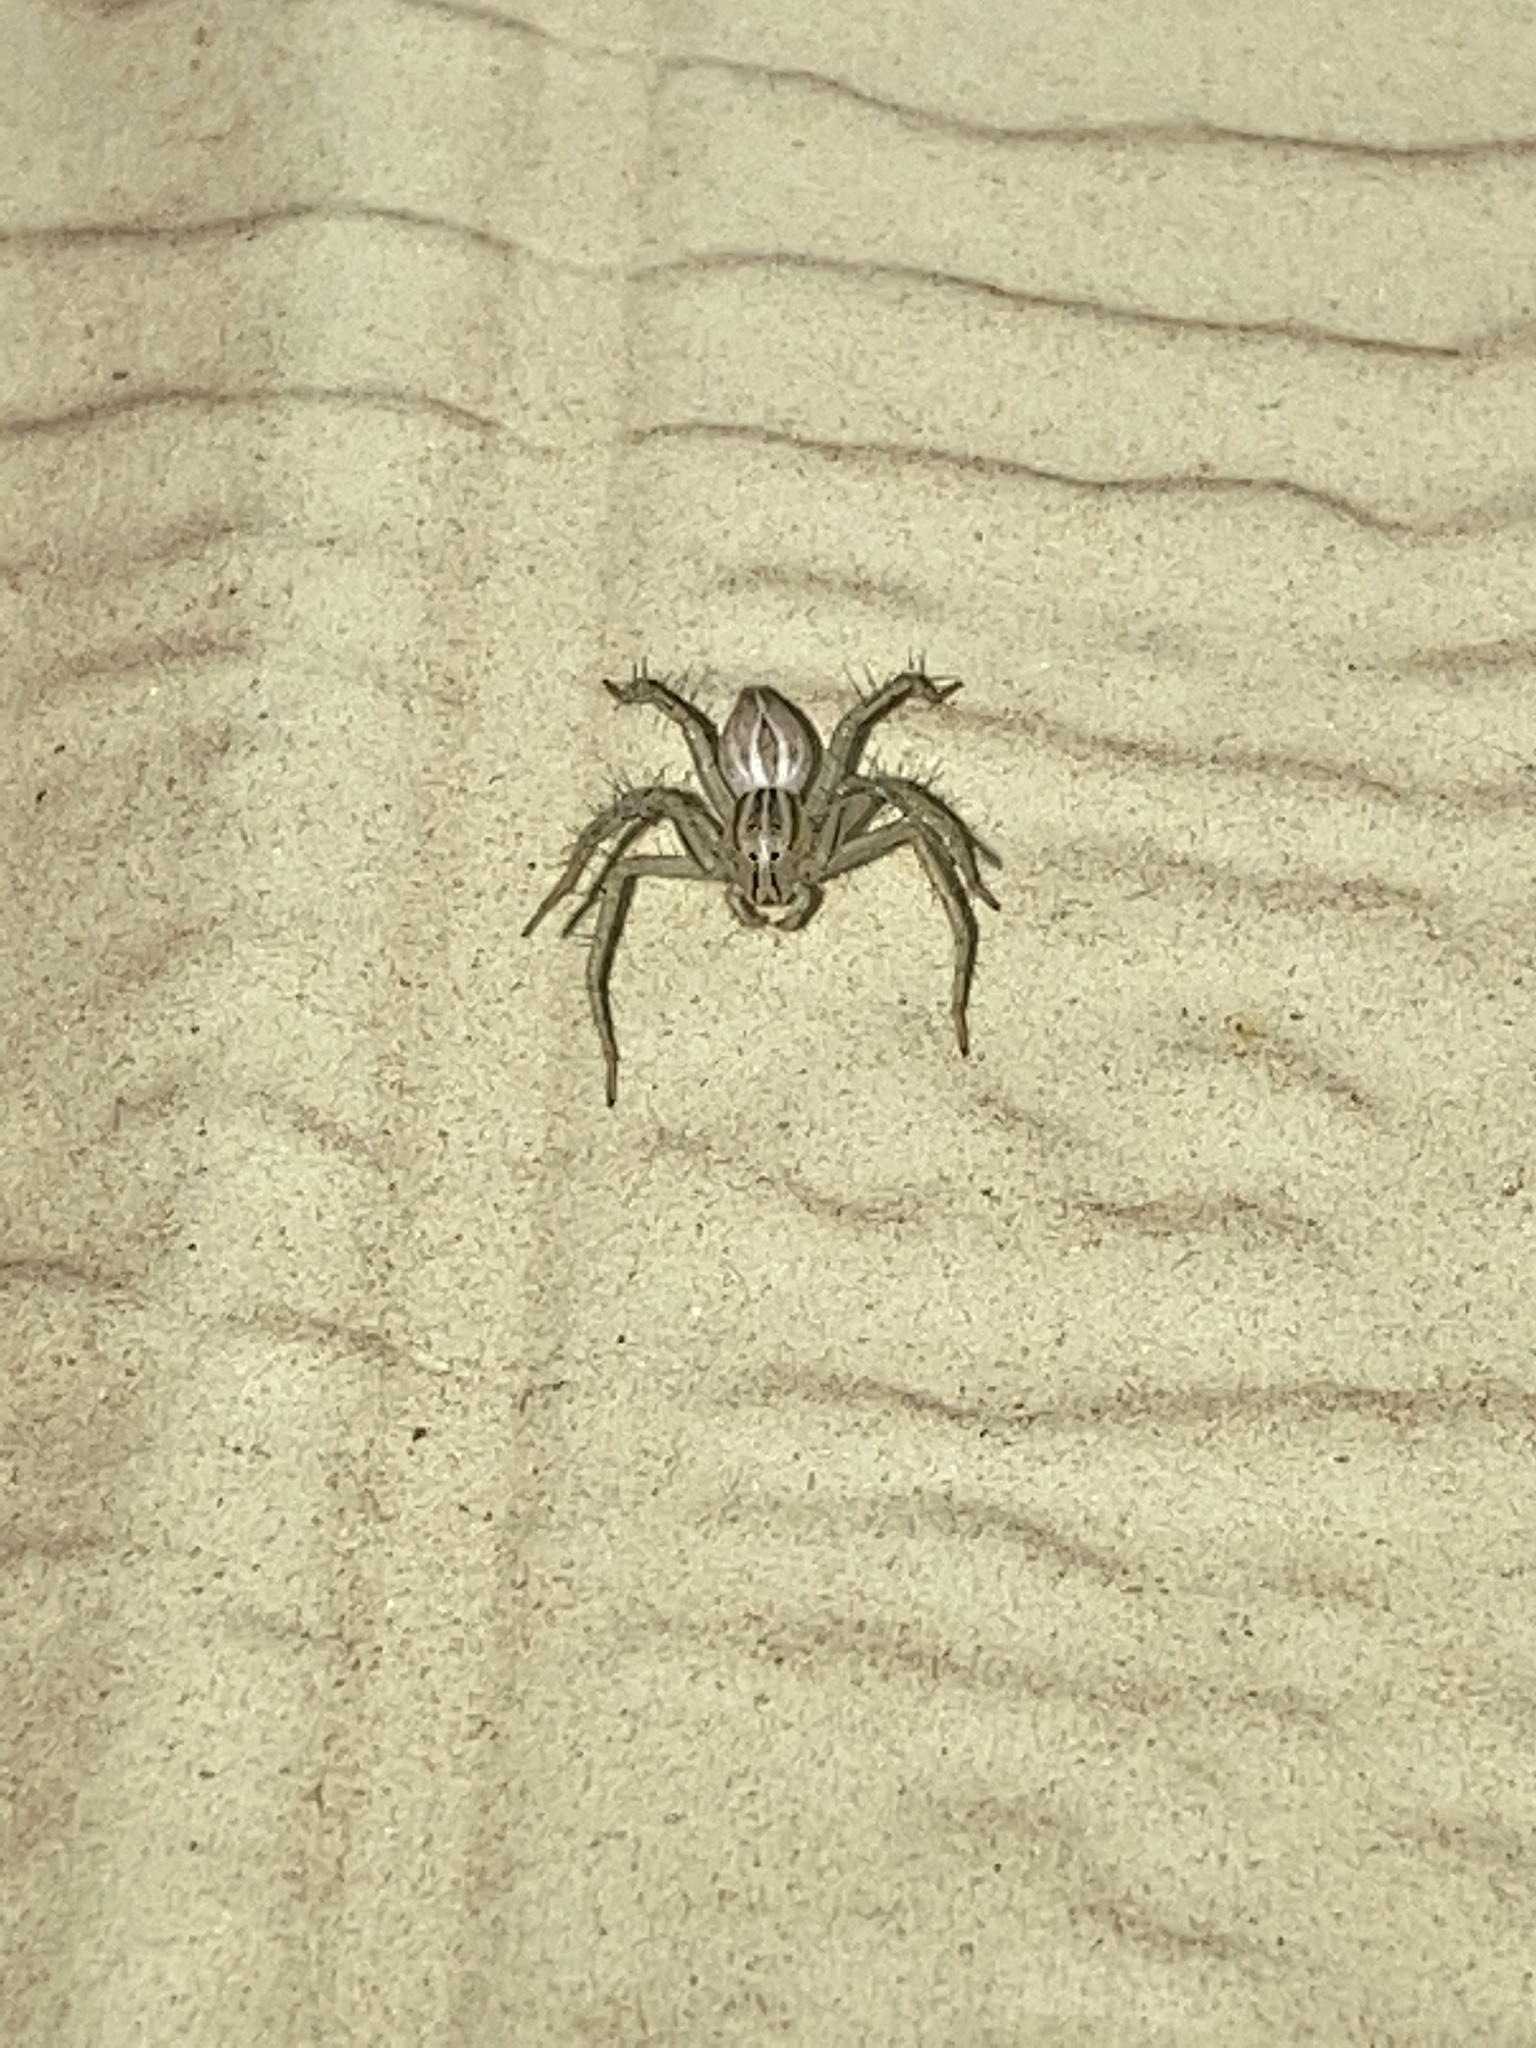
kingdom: Animalia
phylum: Arthropoda
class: Arachnida
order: Araneae
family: Oxyopidae
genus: Oxyopes
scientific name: Oxyopes salticus
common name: Lynx spiders
